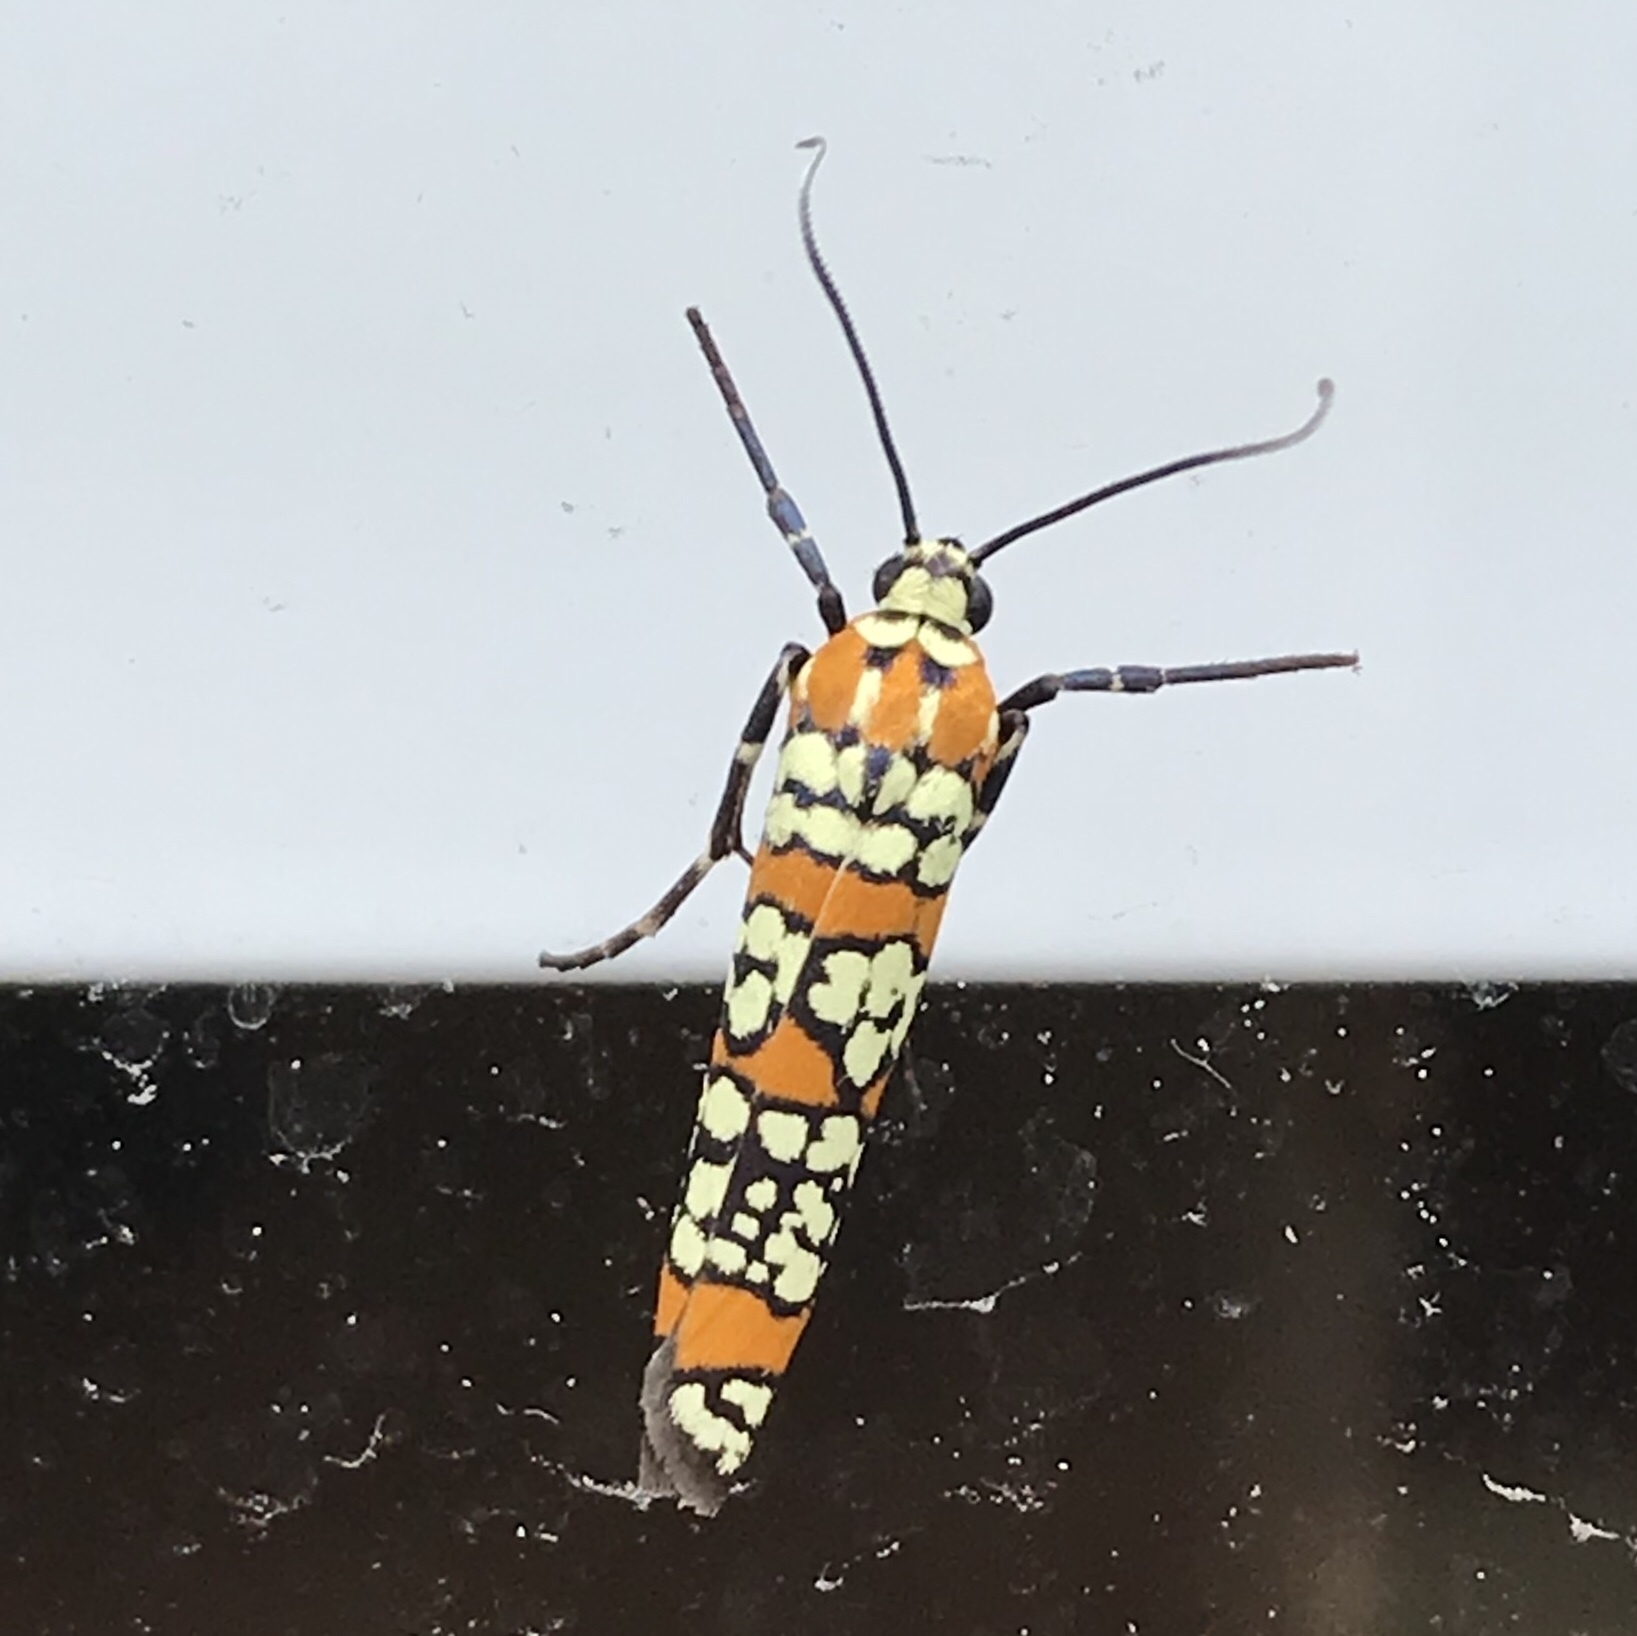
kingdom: Animalia
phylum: Arthropoda
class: Insecta
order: Lepidoptera
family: Attevidae
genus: Atteva
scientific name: Atteva punctella
